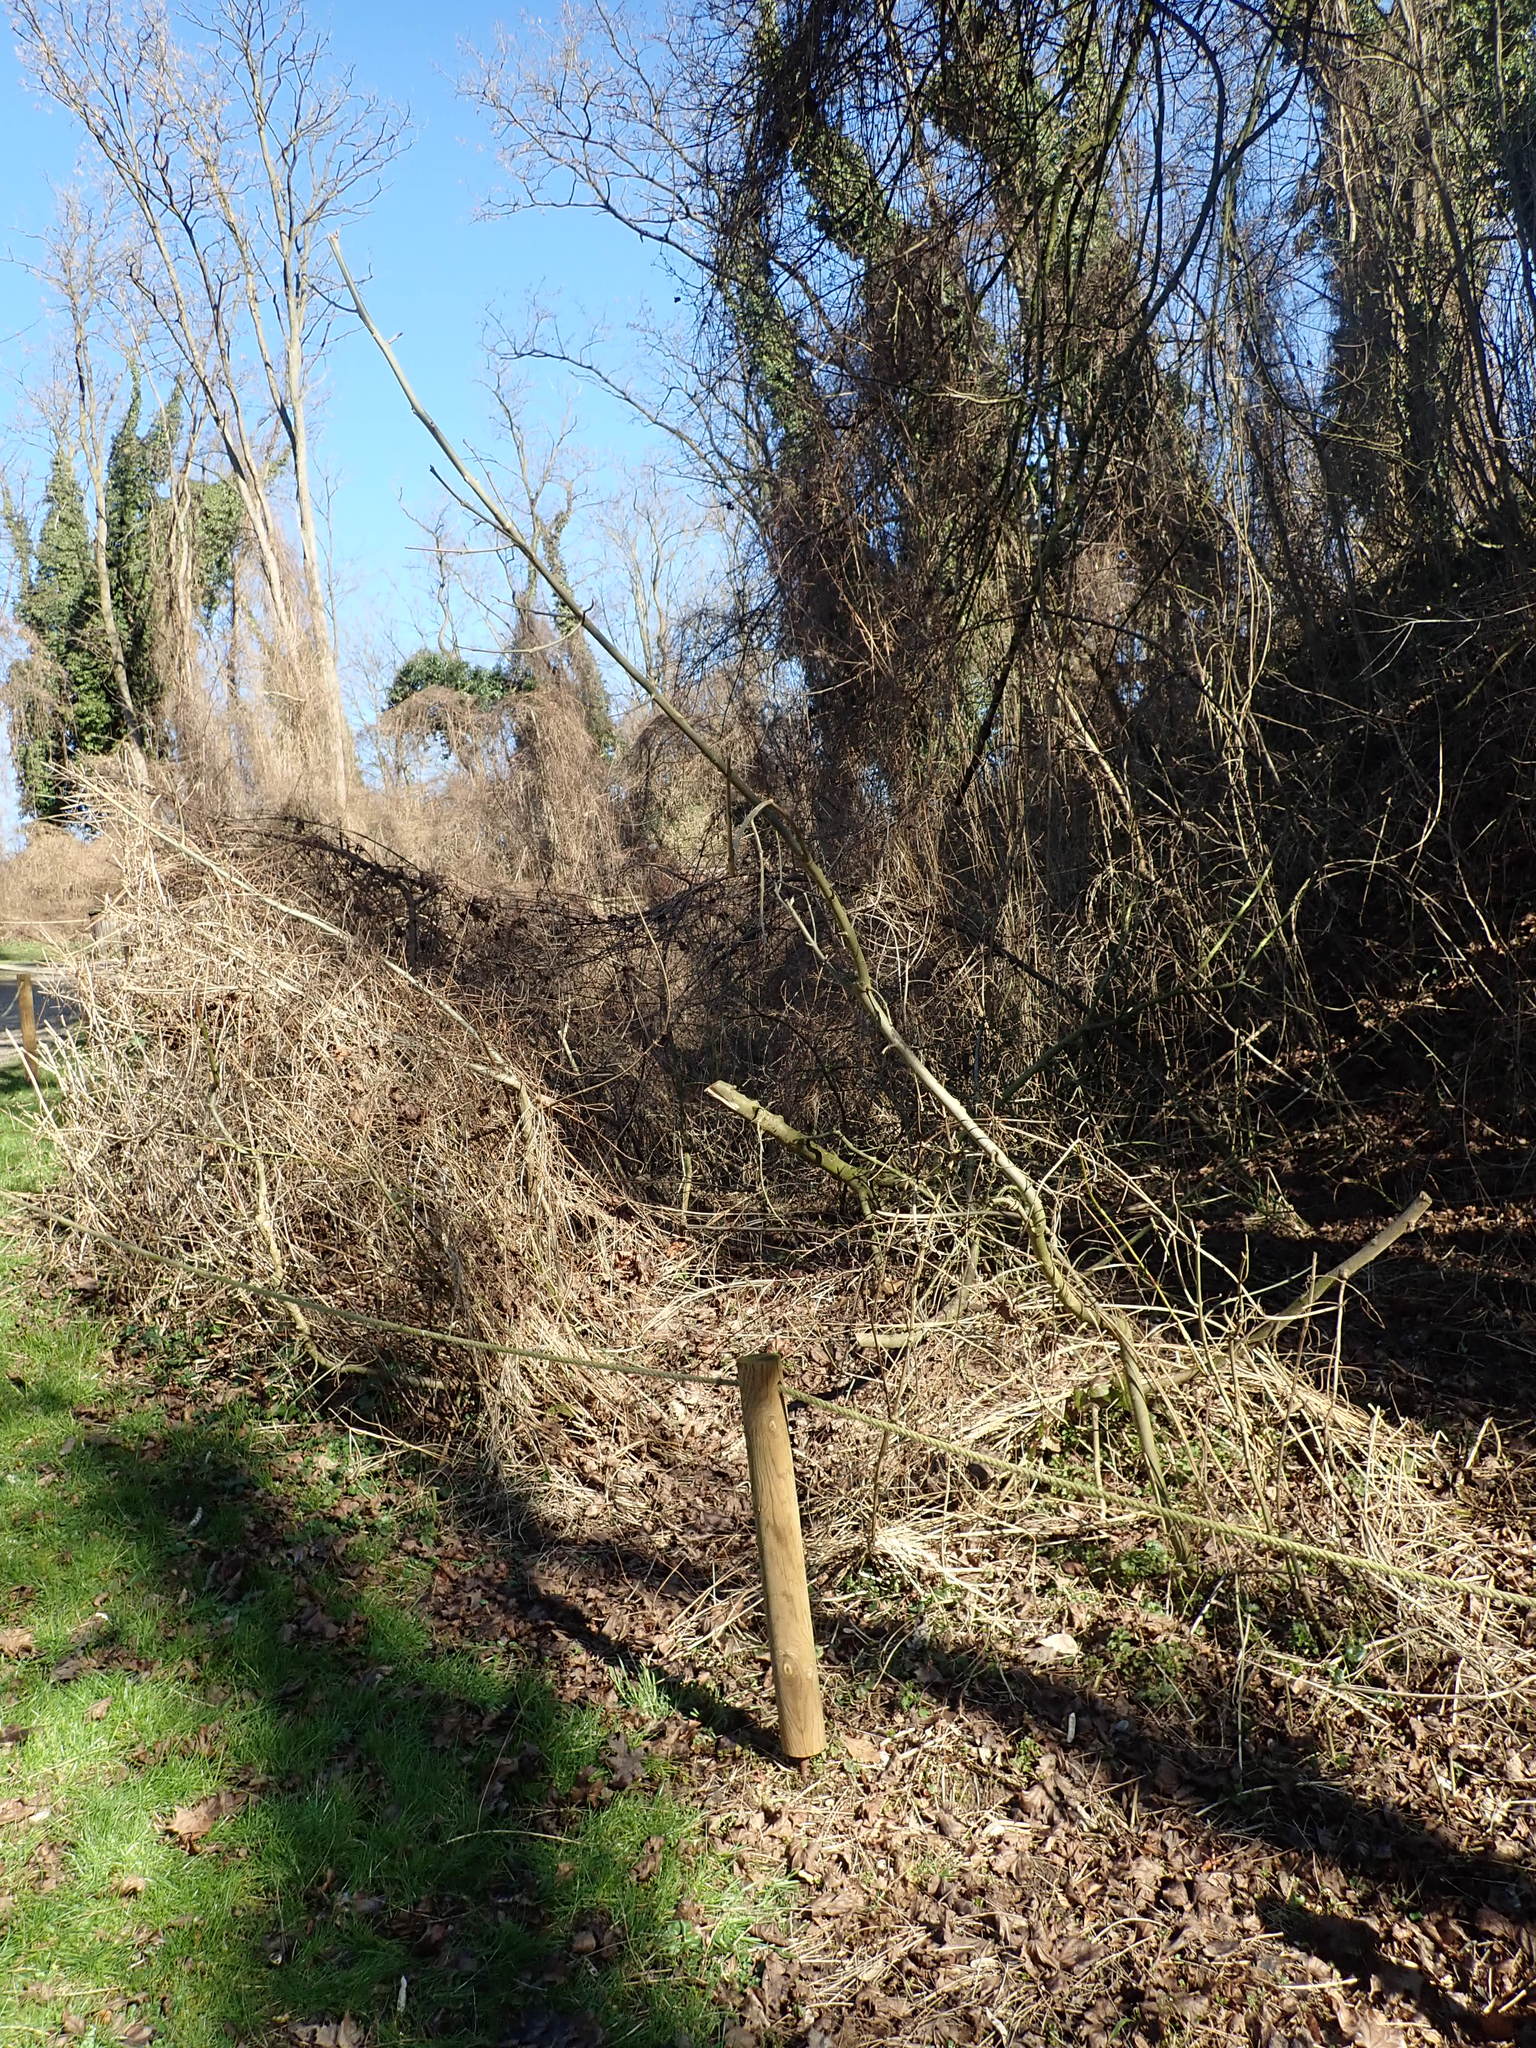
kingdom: Plantae
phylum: Tracheophyta
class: Magnoliopsida
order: Lamiales
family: Oleaceae
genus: Fraxinus
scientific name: Fraxinus excelsior
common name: European ash
